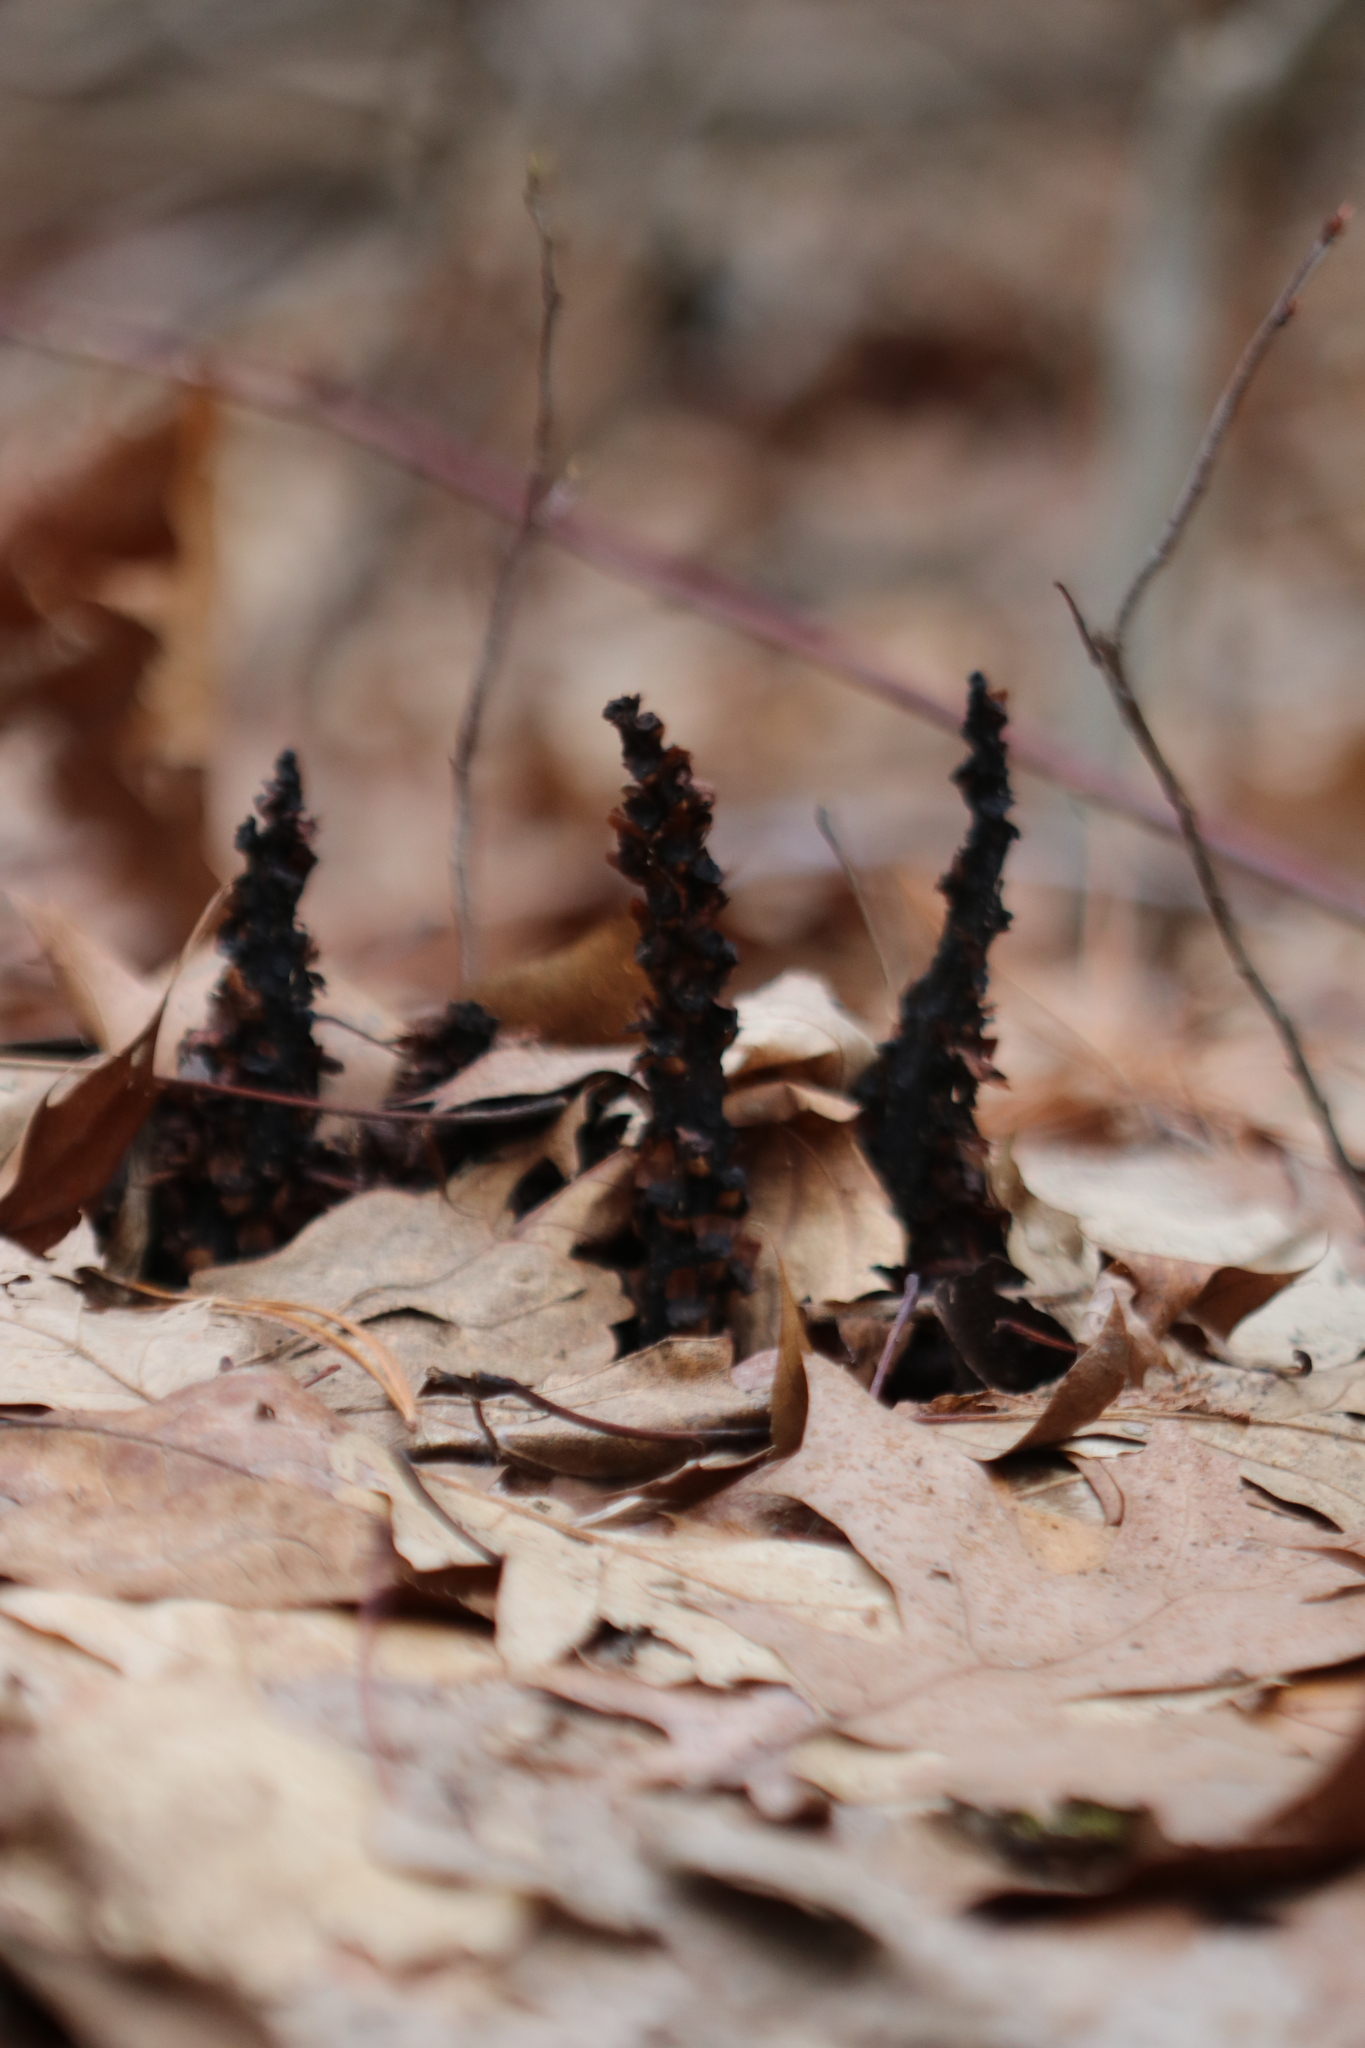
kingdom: Plantae
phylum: Tracheophyta
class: Magnoliopsida
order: Lamiales
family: Orobanchaceae
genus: Conopholis
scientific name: Conopholis americana
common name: American cancer-root
